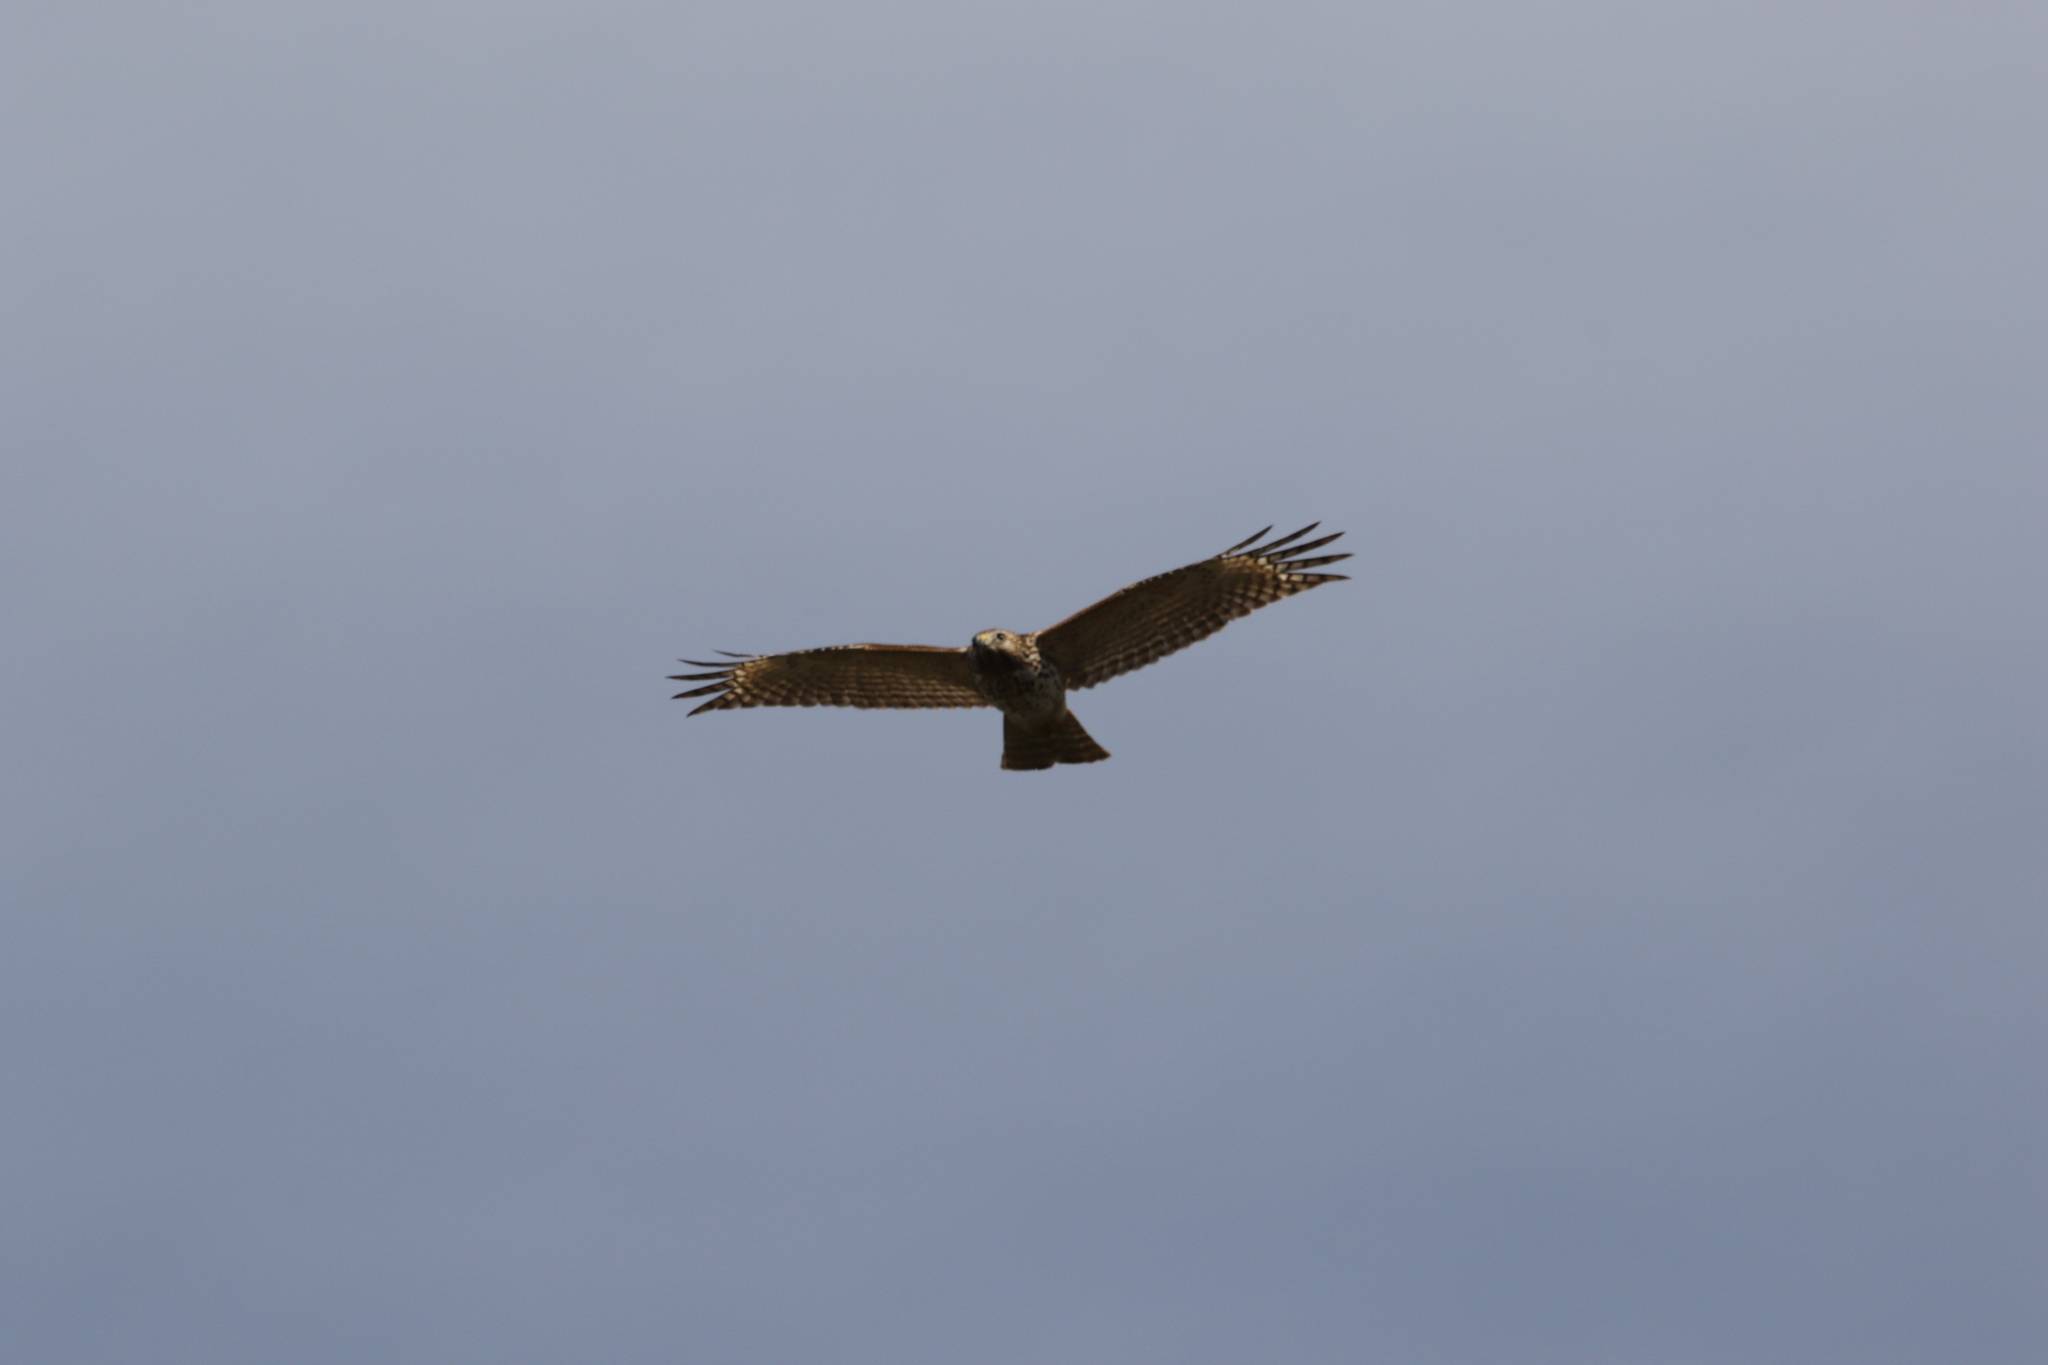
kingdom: Animalia
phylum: Chordata
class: Aves
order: Accipitriformes
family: Accipitridae
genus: Buteo
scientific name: Buteo lineatus
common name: Red-shouldered hawk
